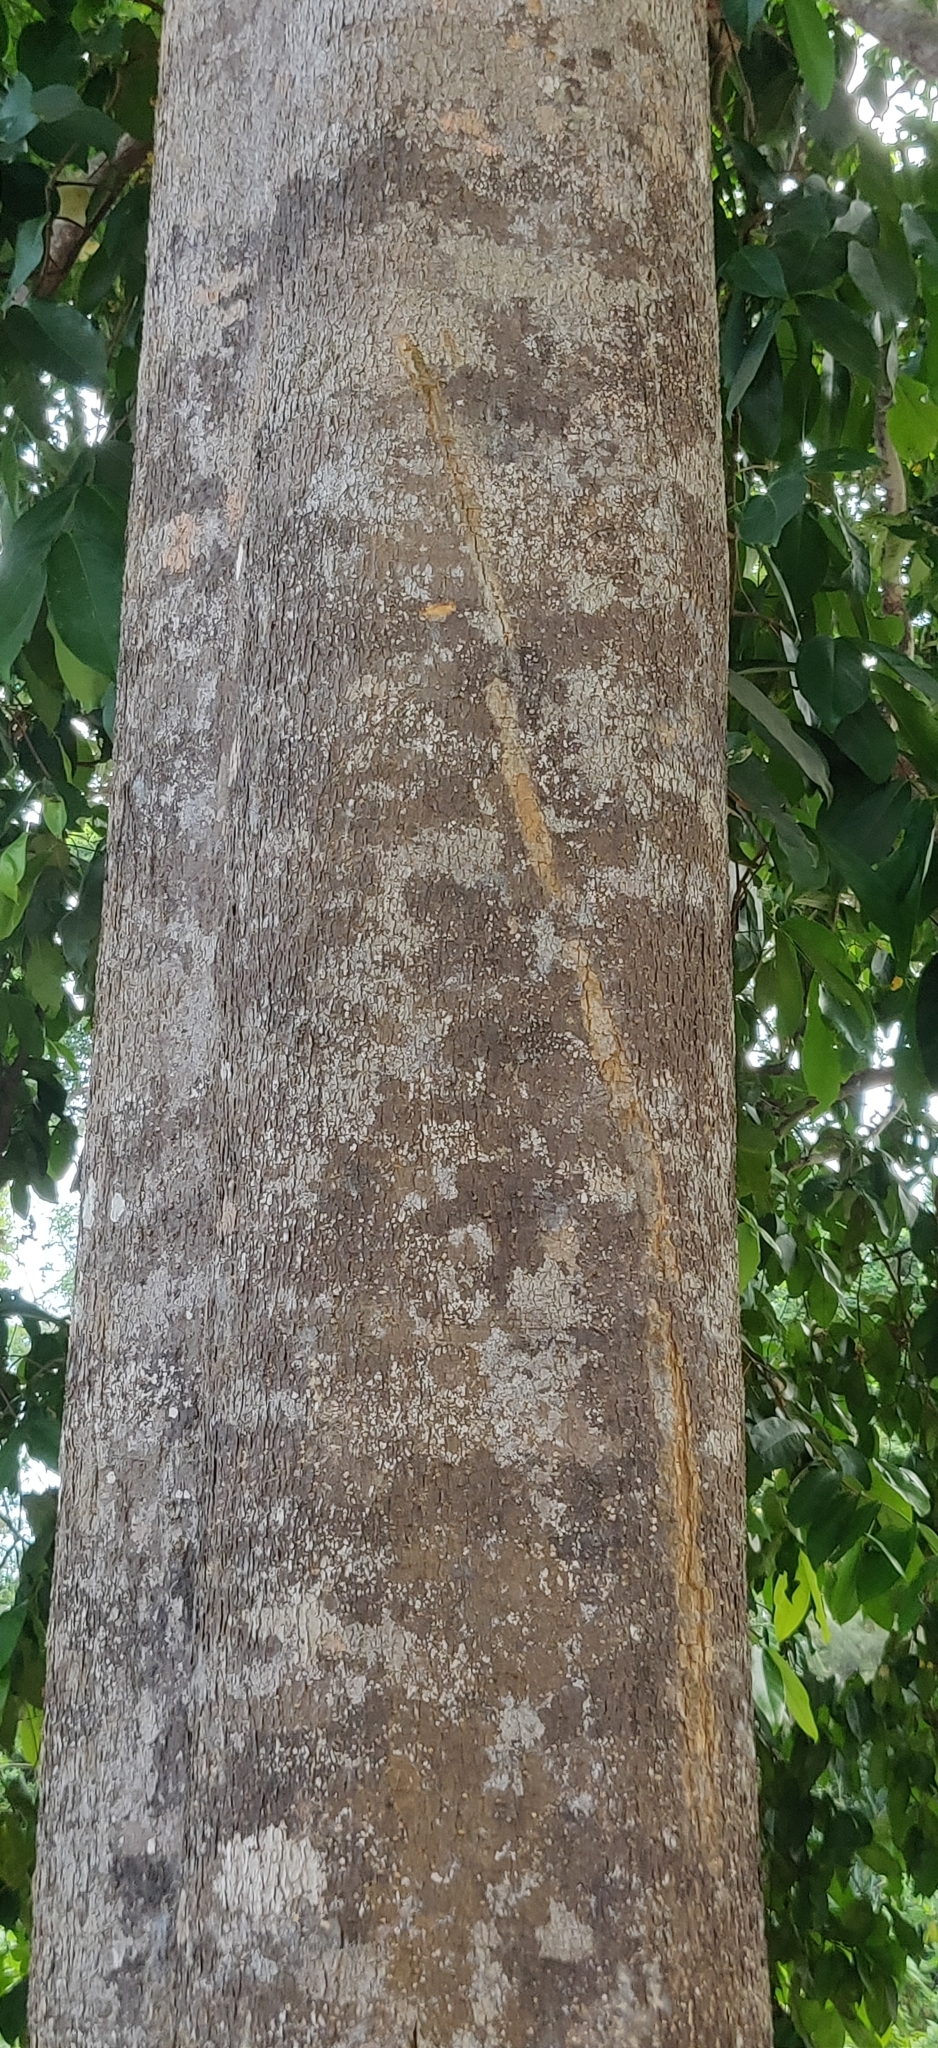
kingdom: Plantae
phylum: Tracheophyta
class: Magnoliopsida
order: Gentianales
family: Apocynaceae
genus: Alstonia
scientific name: Alstonia scholaris
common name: White cheesewood
